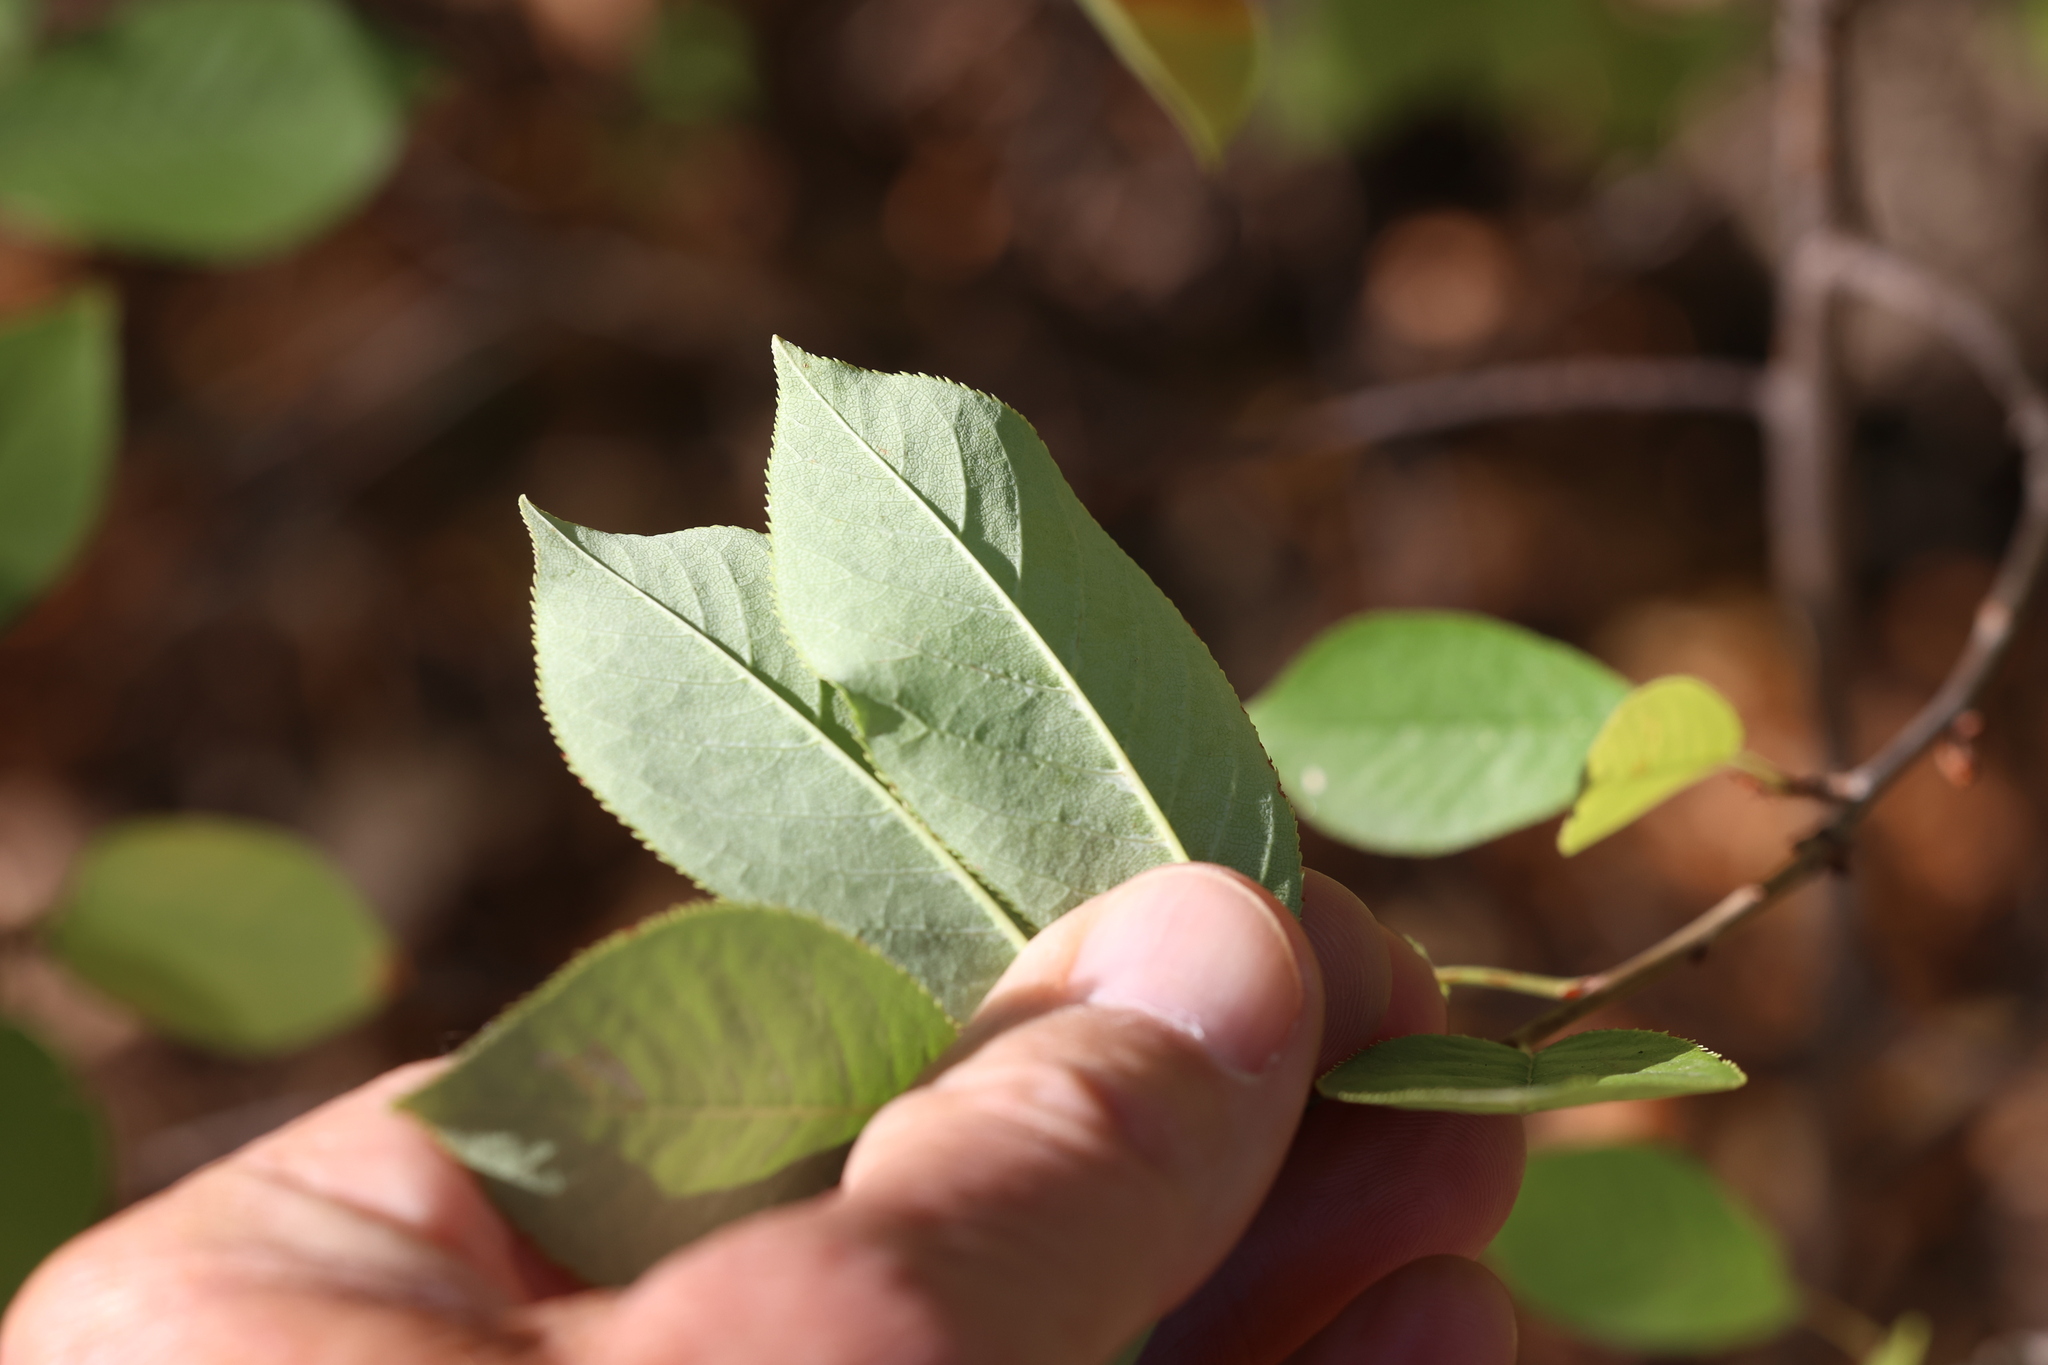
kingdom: Plantae
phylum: Tracheophyta
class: Magnoliopsida
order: Rosales
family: Rosaceae
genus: Prunus
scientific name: Prunus virginiana
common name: Chokecherry
